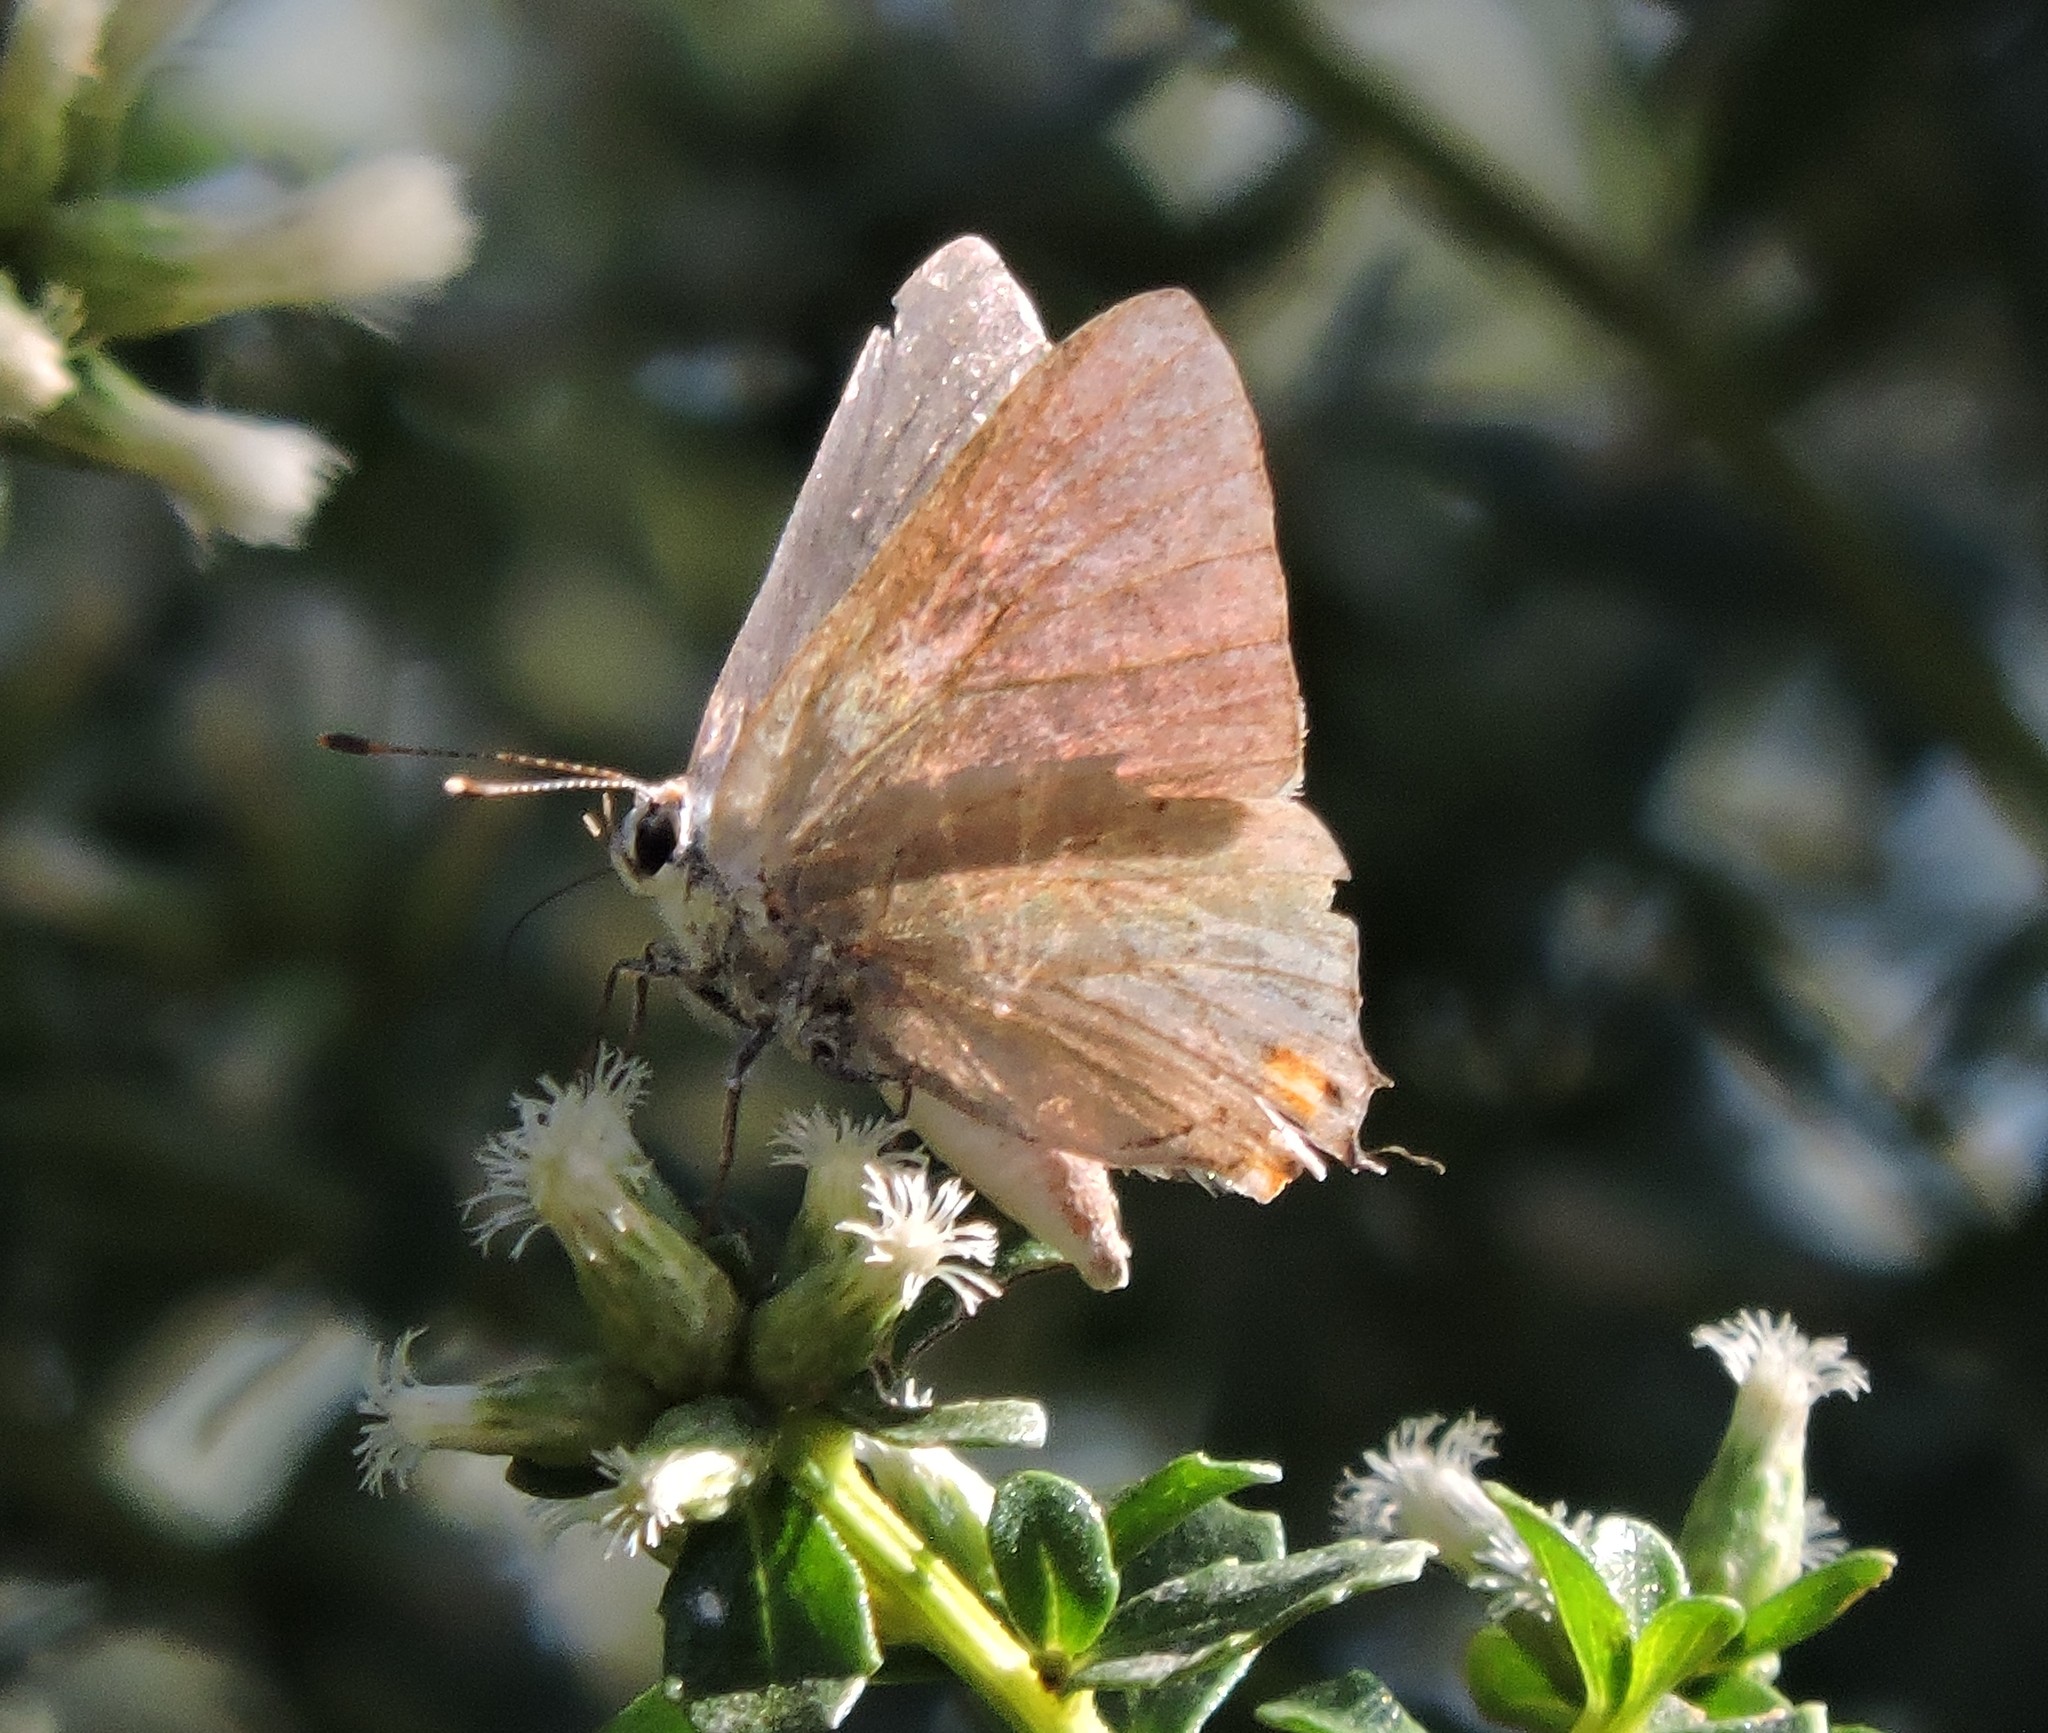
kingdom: Animalia
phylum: Arthropoda
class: Insecta
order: Lepidoptera
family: Lycaenidae
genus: Strymon
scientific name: Strymon melinus
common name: Gray hairstreak
